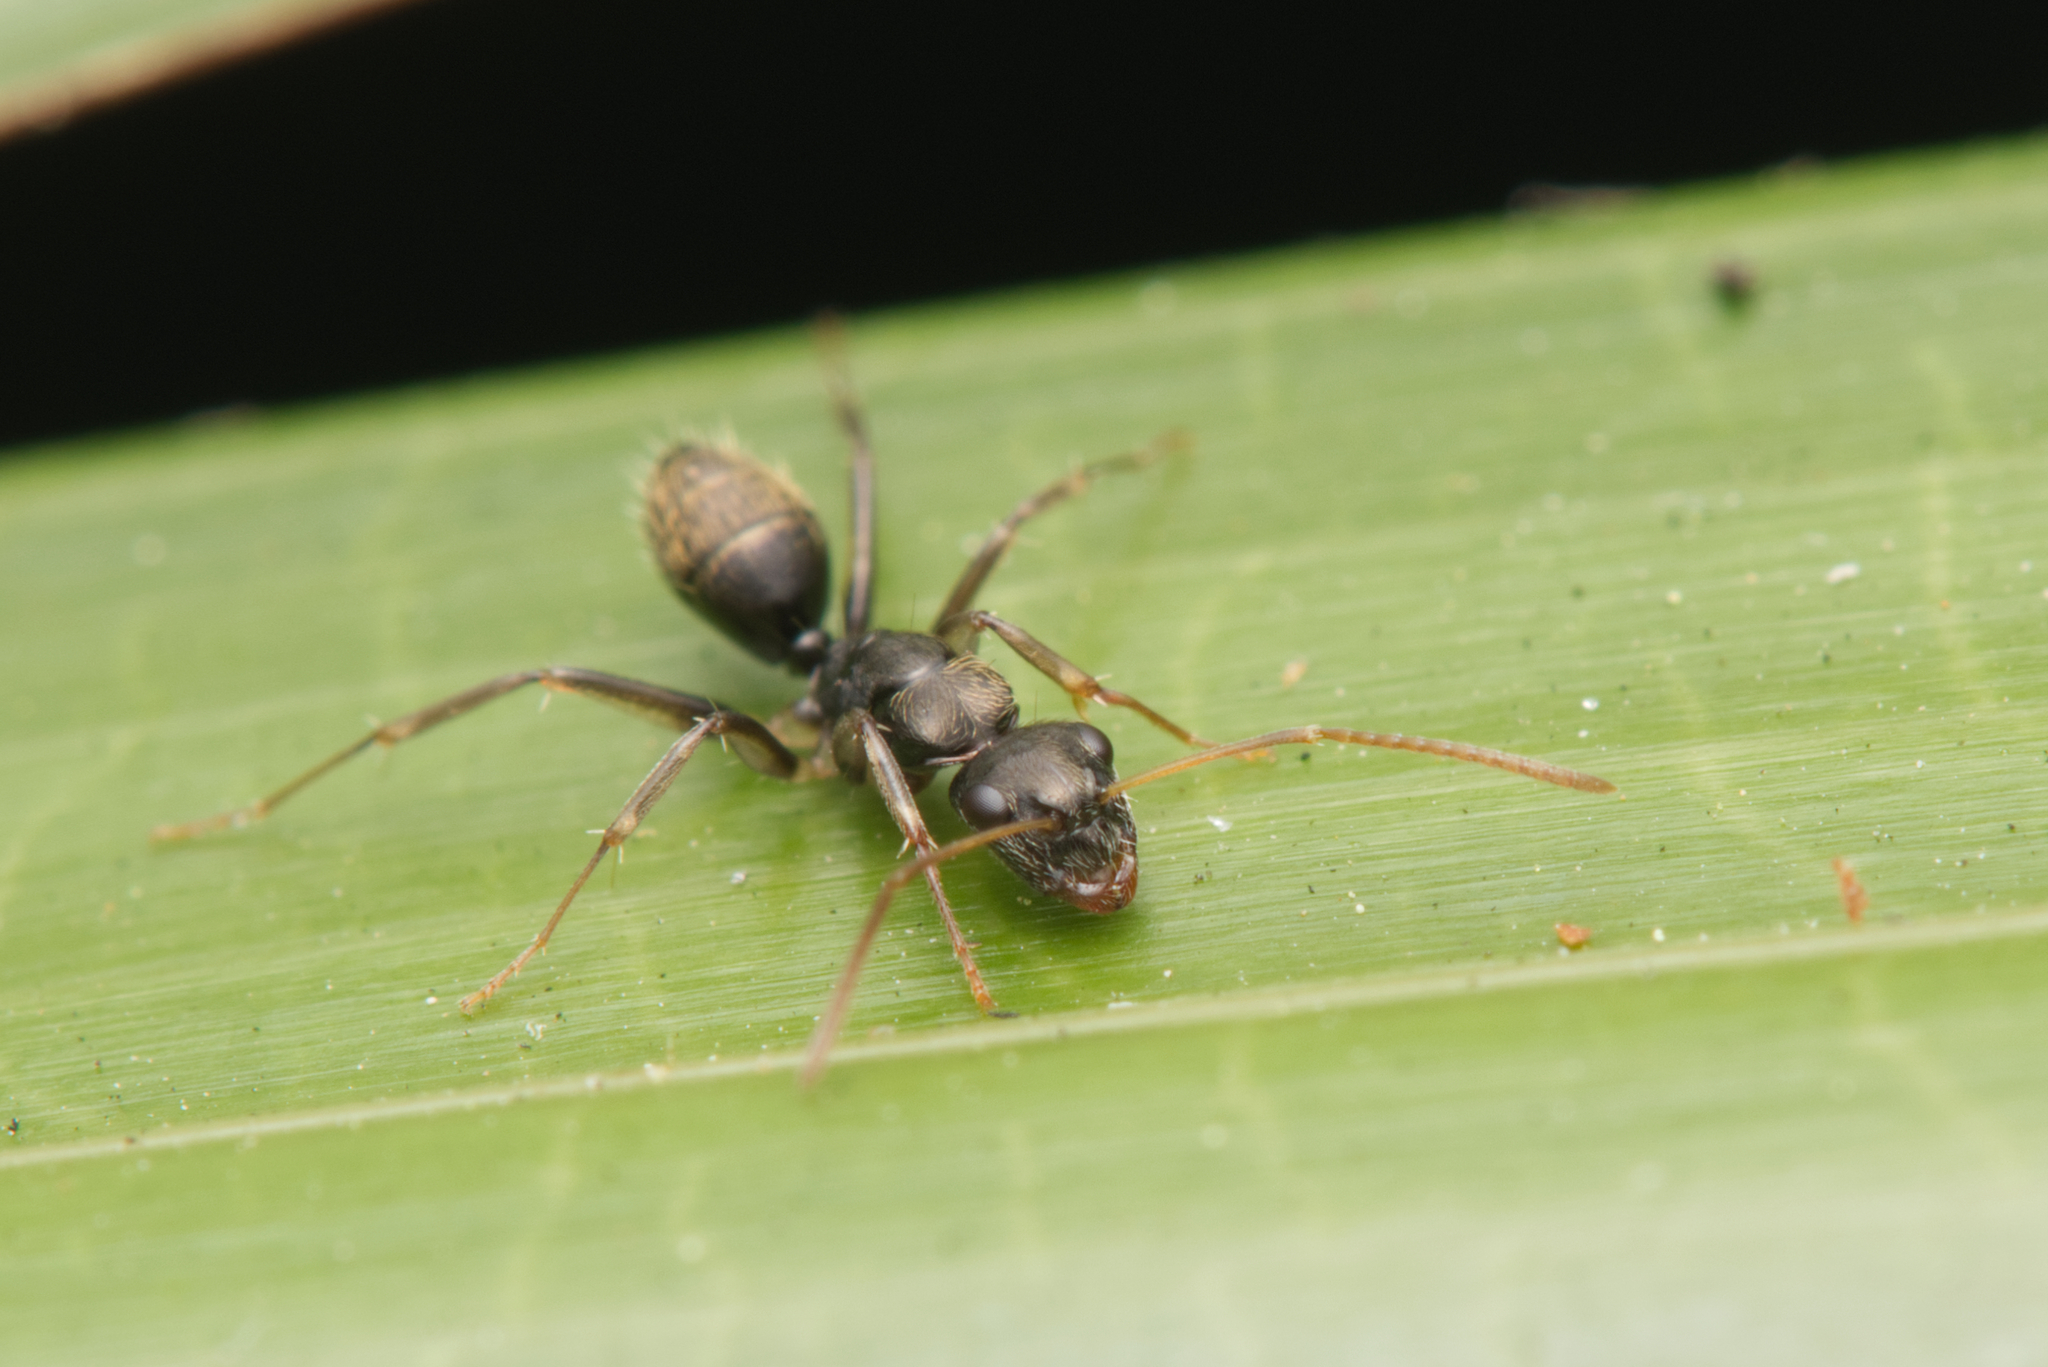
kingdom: Animalia
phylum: Arthropoda
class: Insecta
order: Hymenoptera
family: Formicidae
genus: Camponotus
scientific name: Camponotus froggatti
